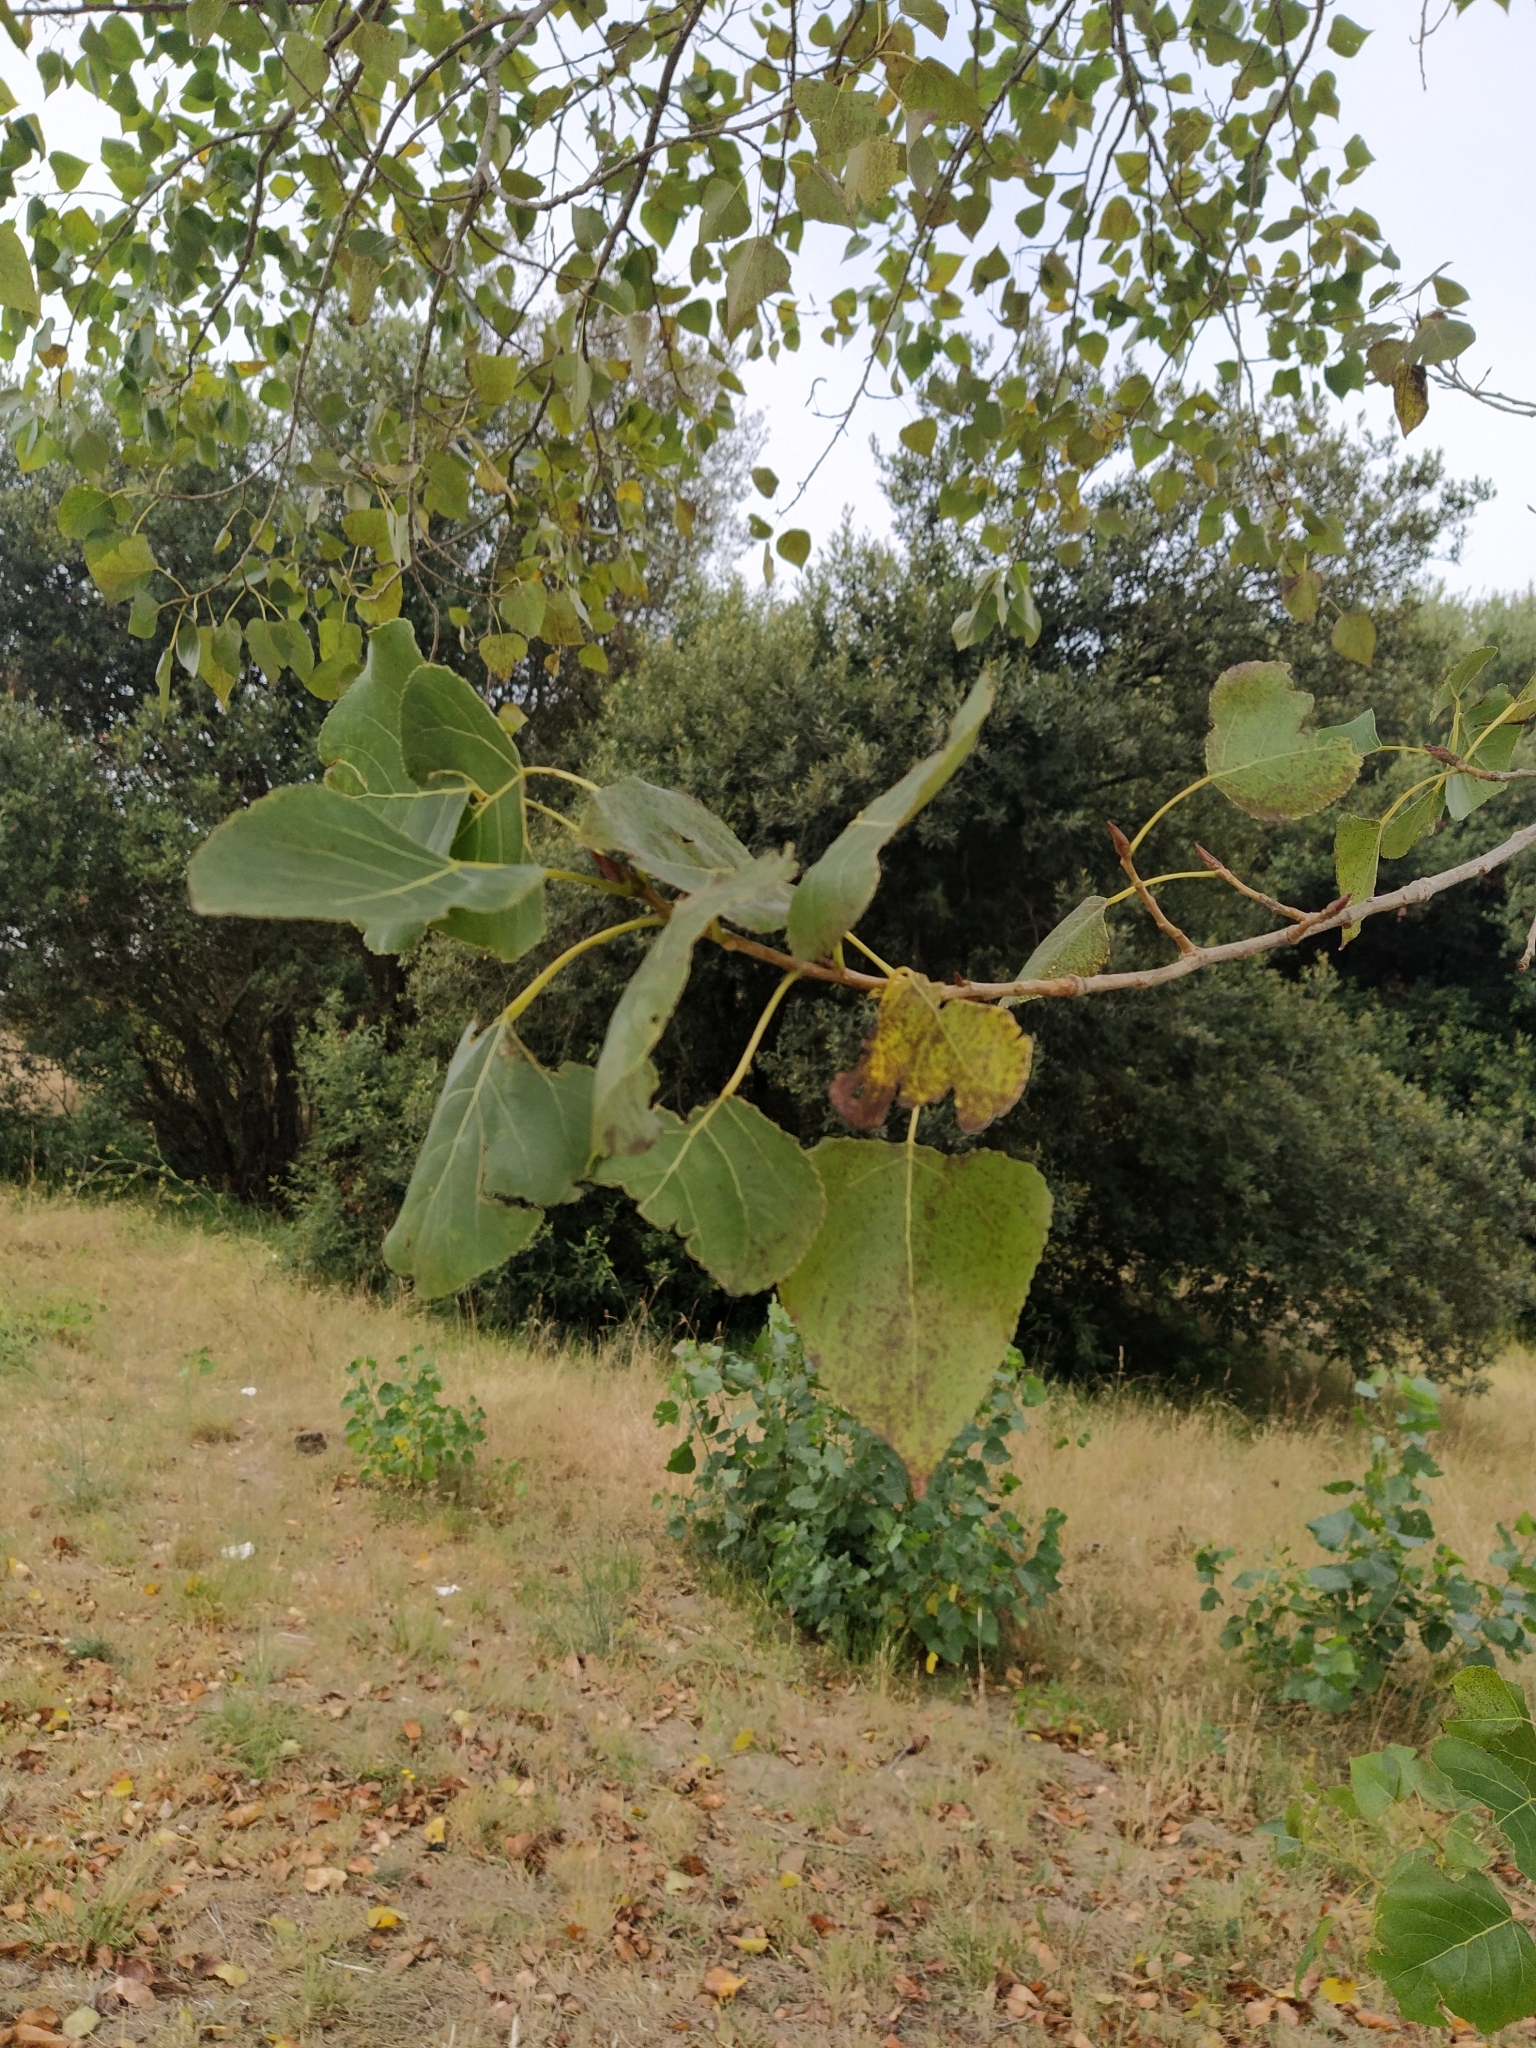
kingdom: Plantae
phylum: Tracheophyta
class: Magnoliopsida
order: Malpighiales
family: Salicaceae
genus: Populus
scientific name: Populus nigra
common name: Black poplar
